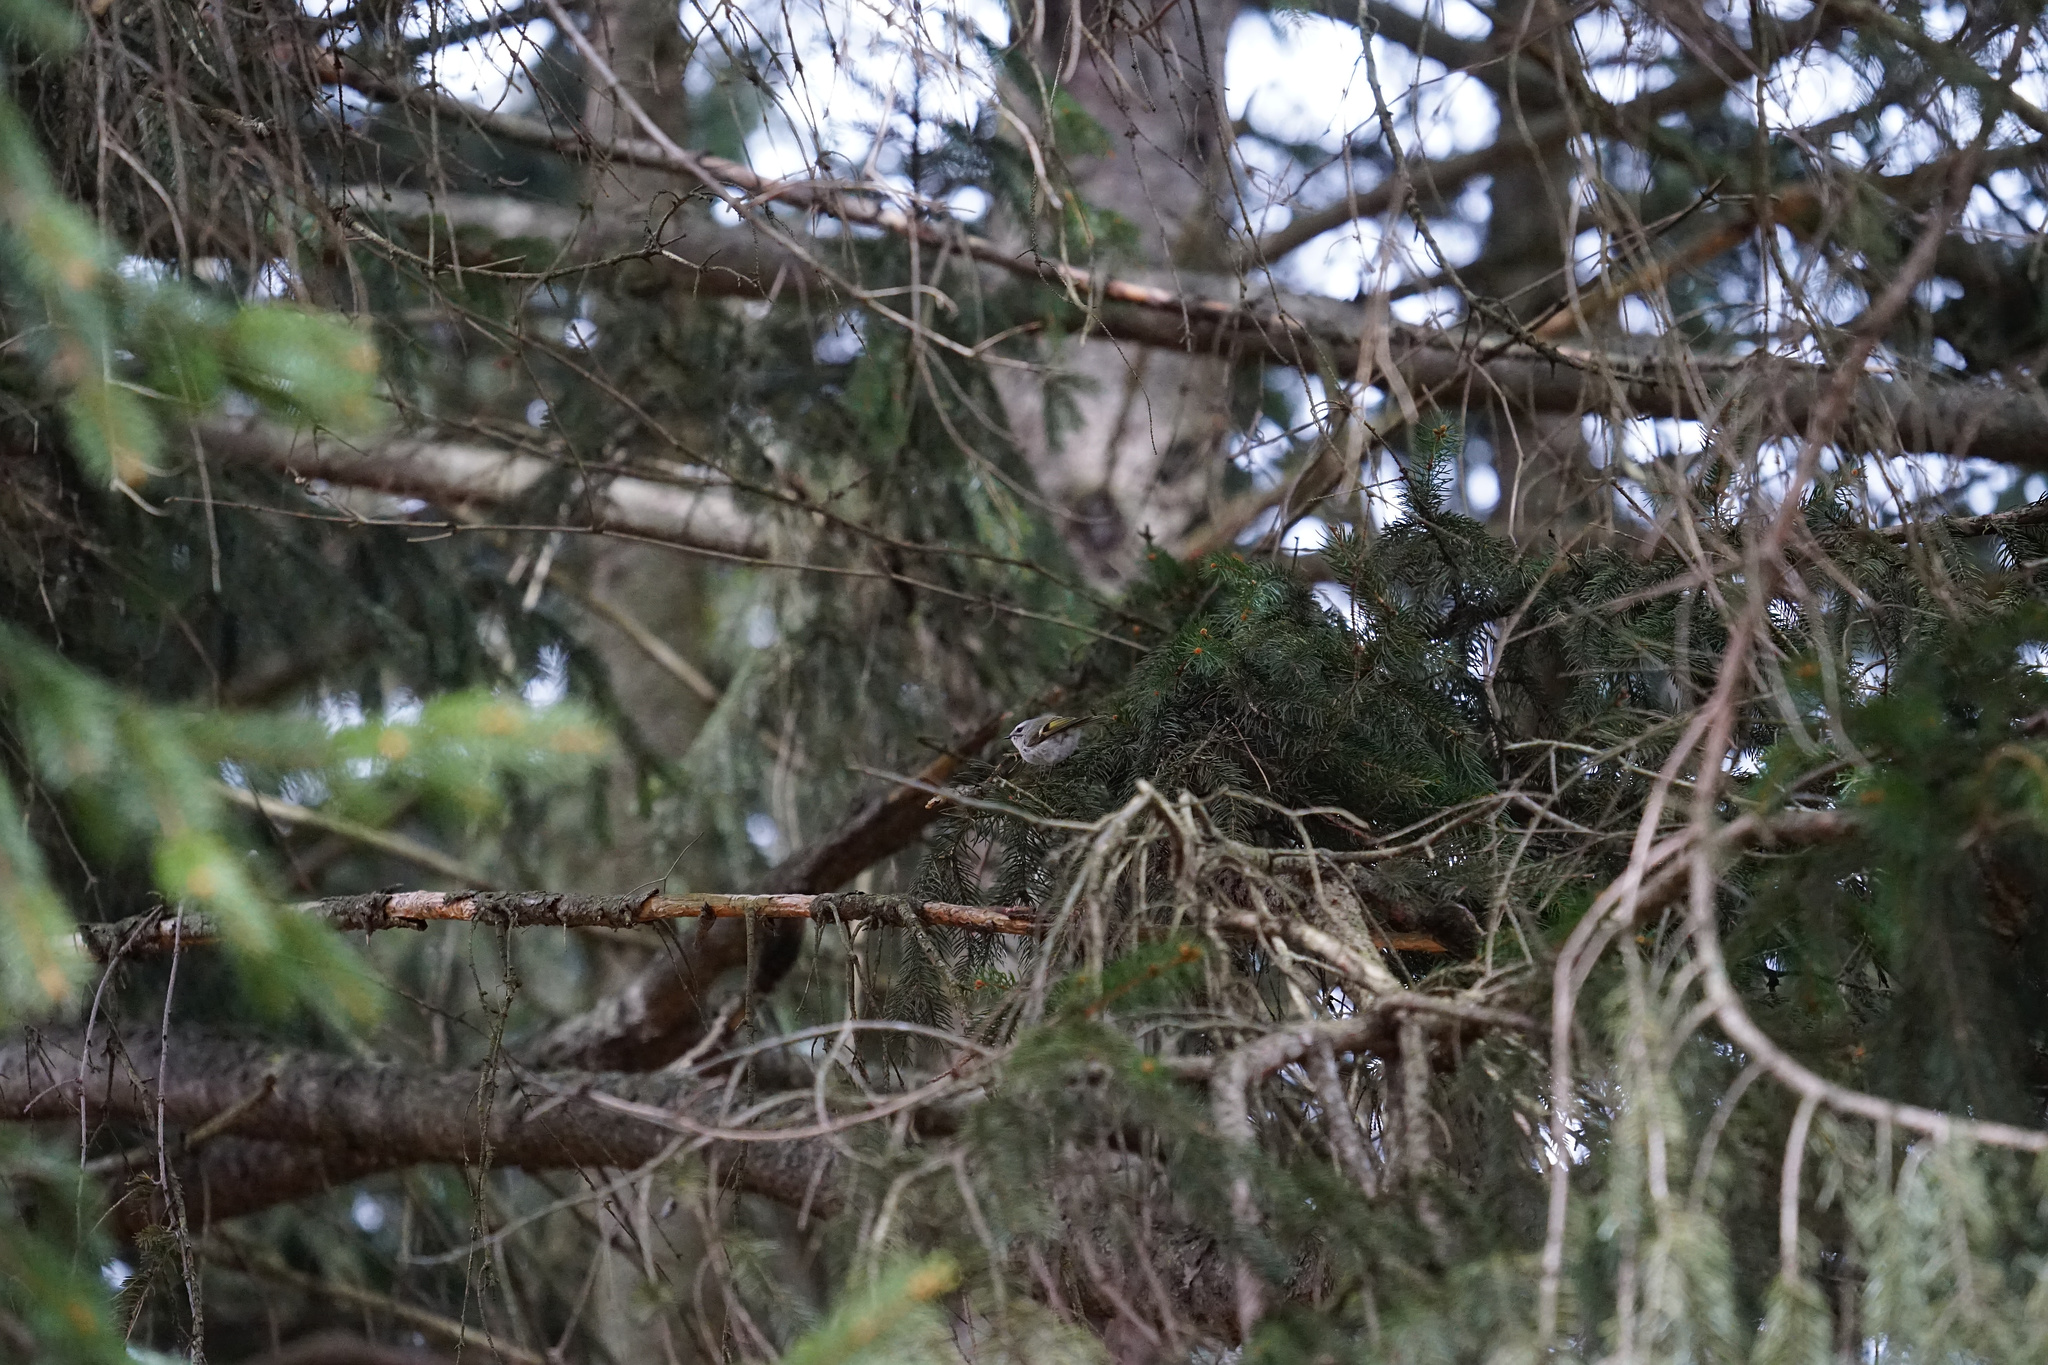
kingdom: Animalia
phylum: Chordata
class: Aves
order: Passeriformes
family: Regulidae
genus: Regulus
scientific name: Regulus satrapa
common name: Golden-crowned kinglet
